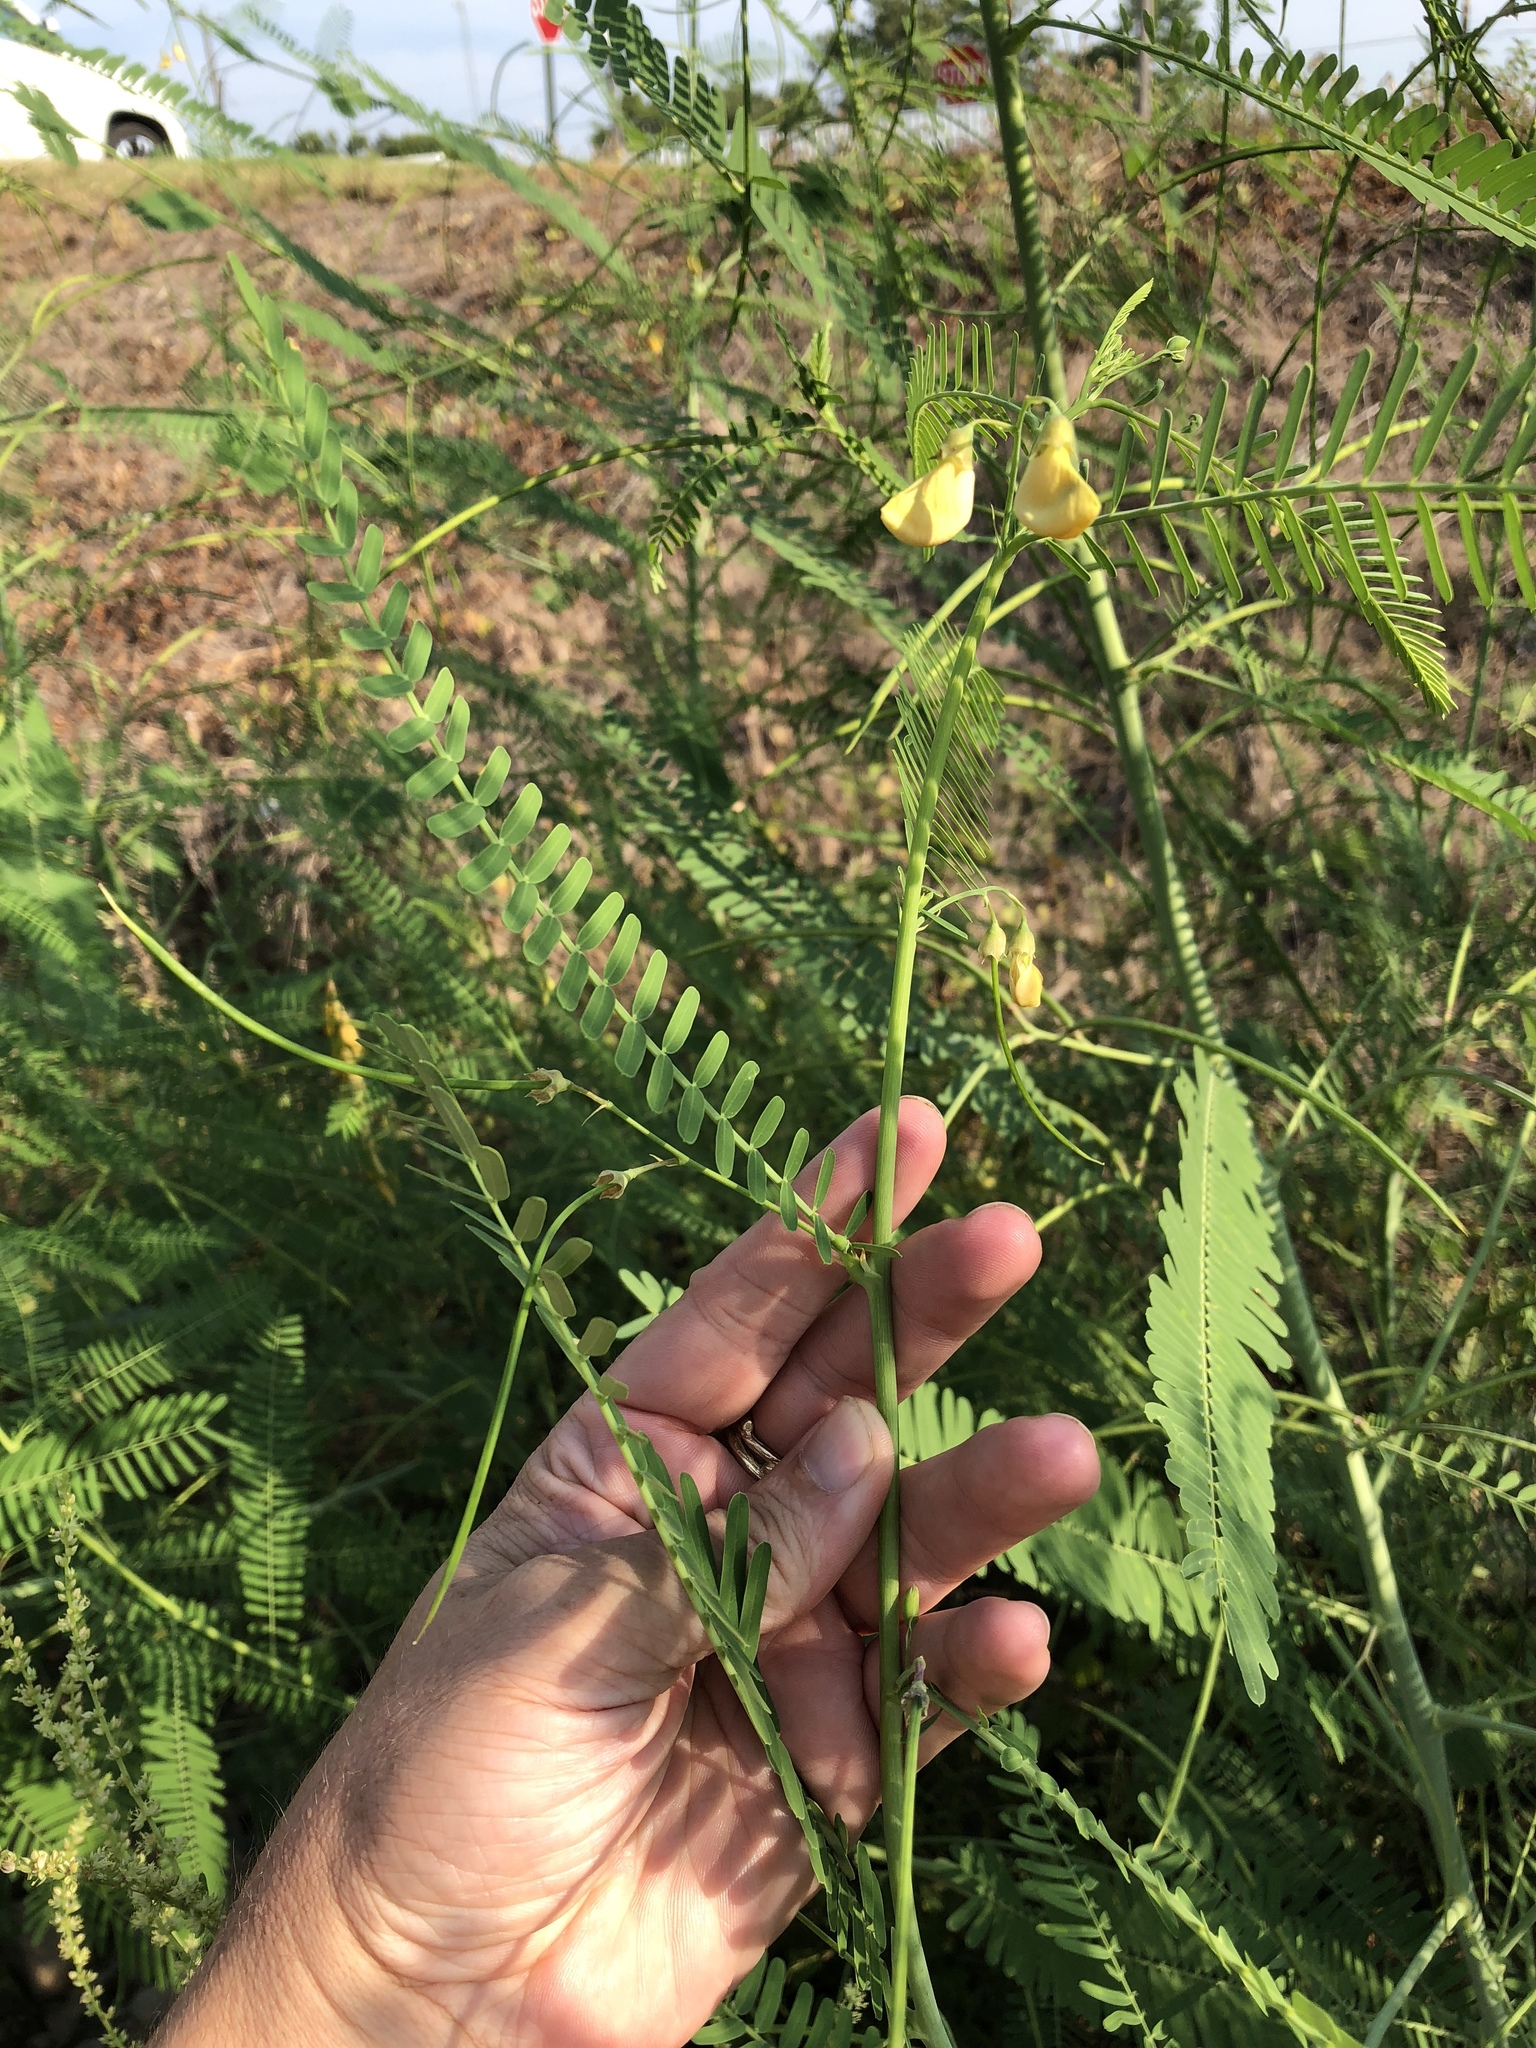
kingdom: Plantae
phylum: Tracheophyta
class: Magnoliopsida
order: Fabales
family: Fabaceae
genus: Sesbania
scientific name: Sesbania herbacea
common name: Bigpod sesbania
